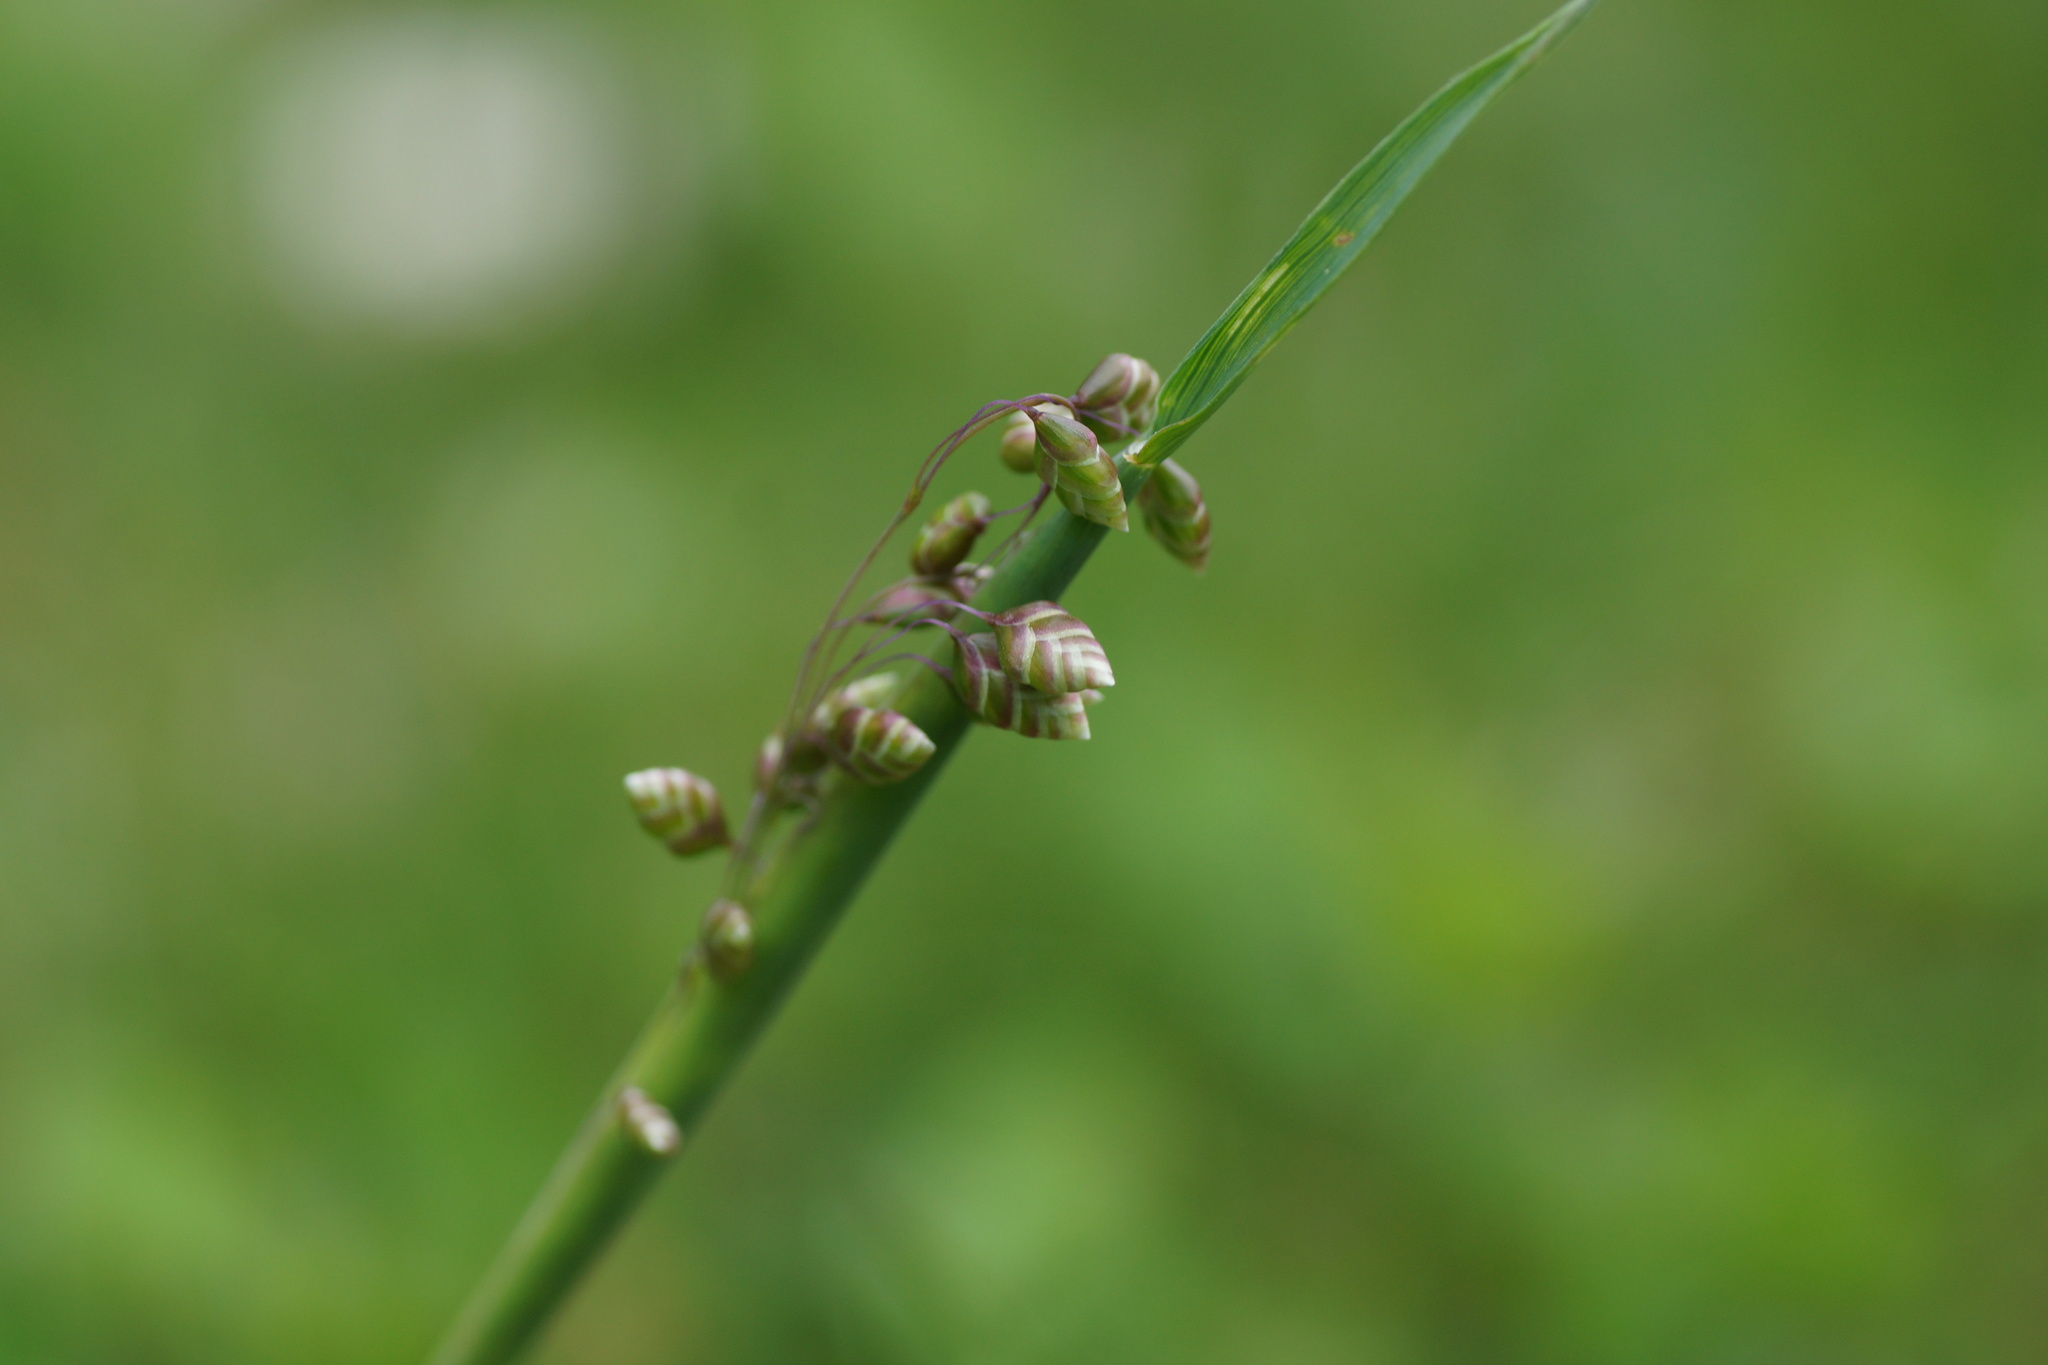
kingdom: Plantae
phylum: Tracheophyta
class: Liliopsida
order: Poales
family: Poaceae
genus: Briza
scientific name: Briza media
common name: Quaking grass
